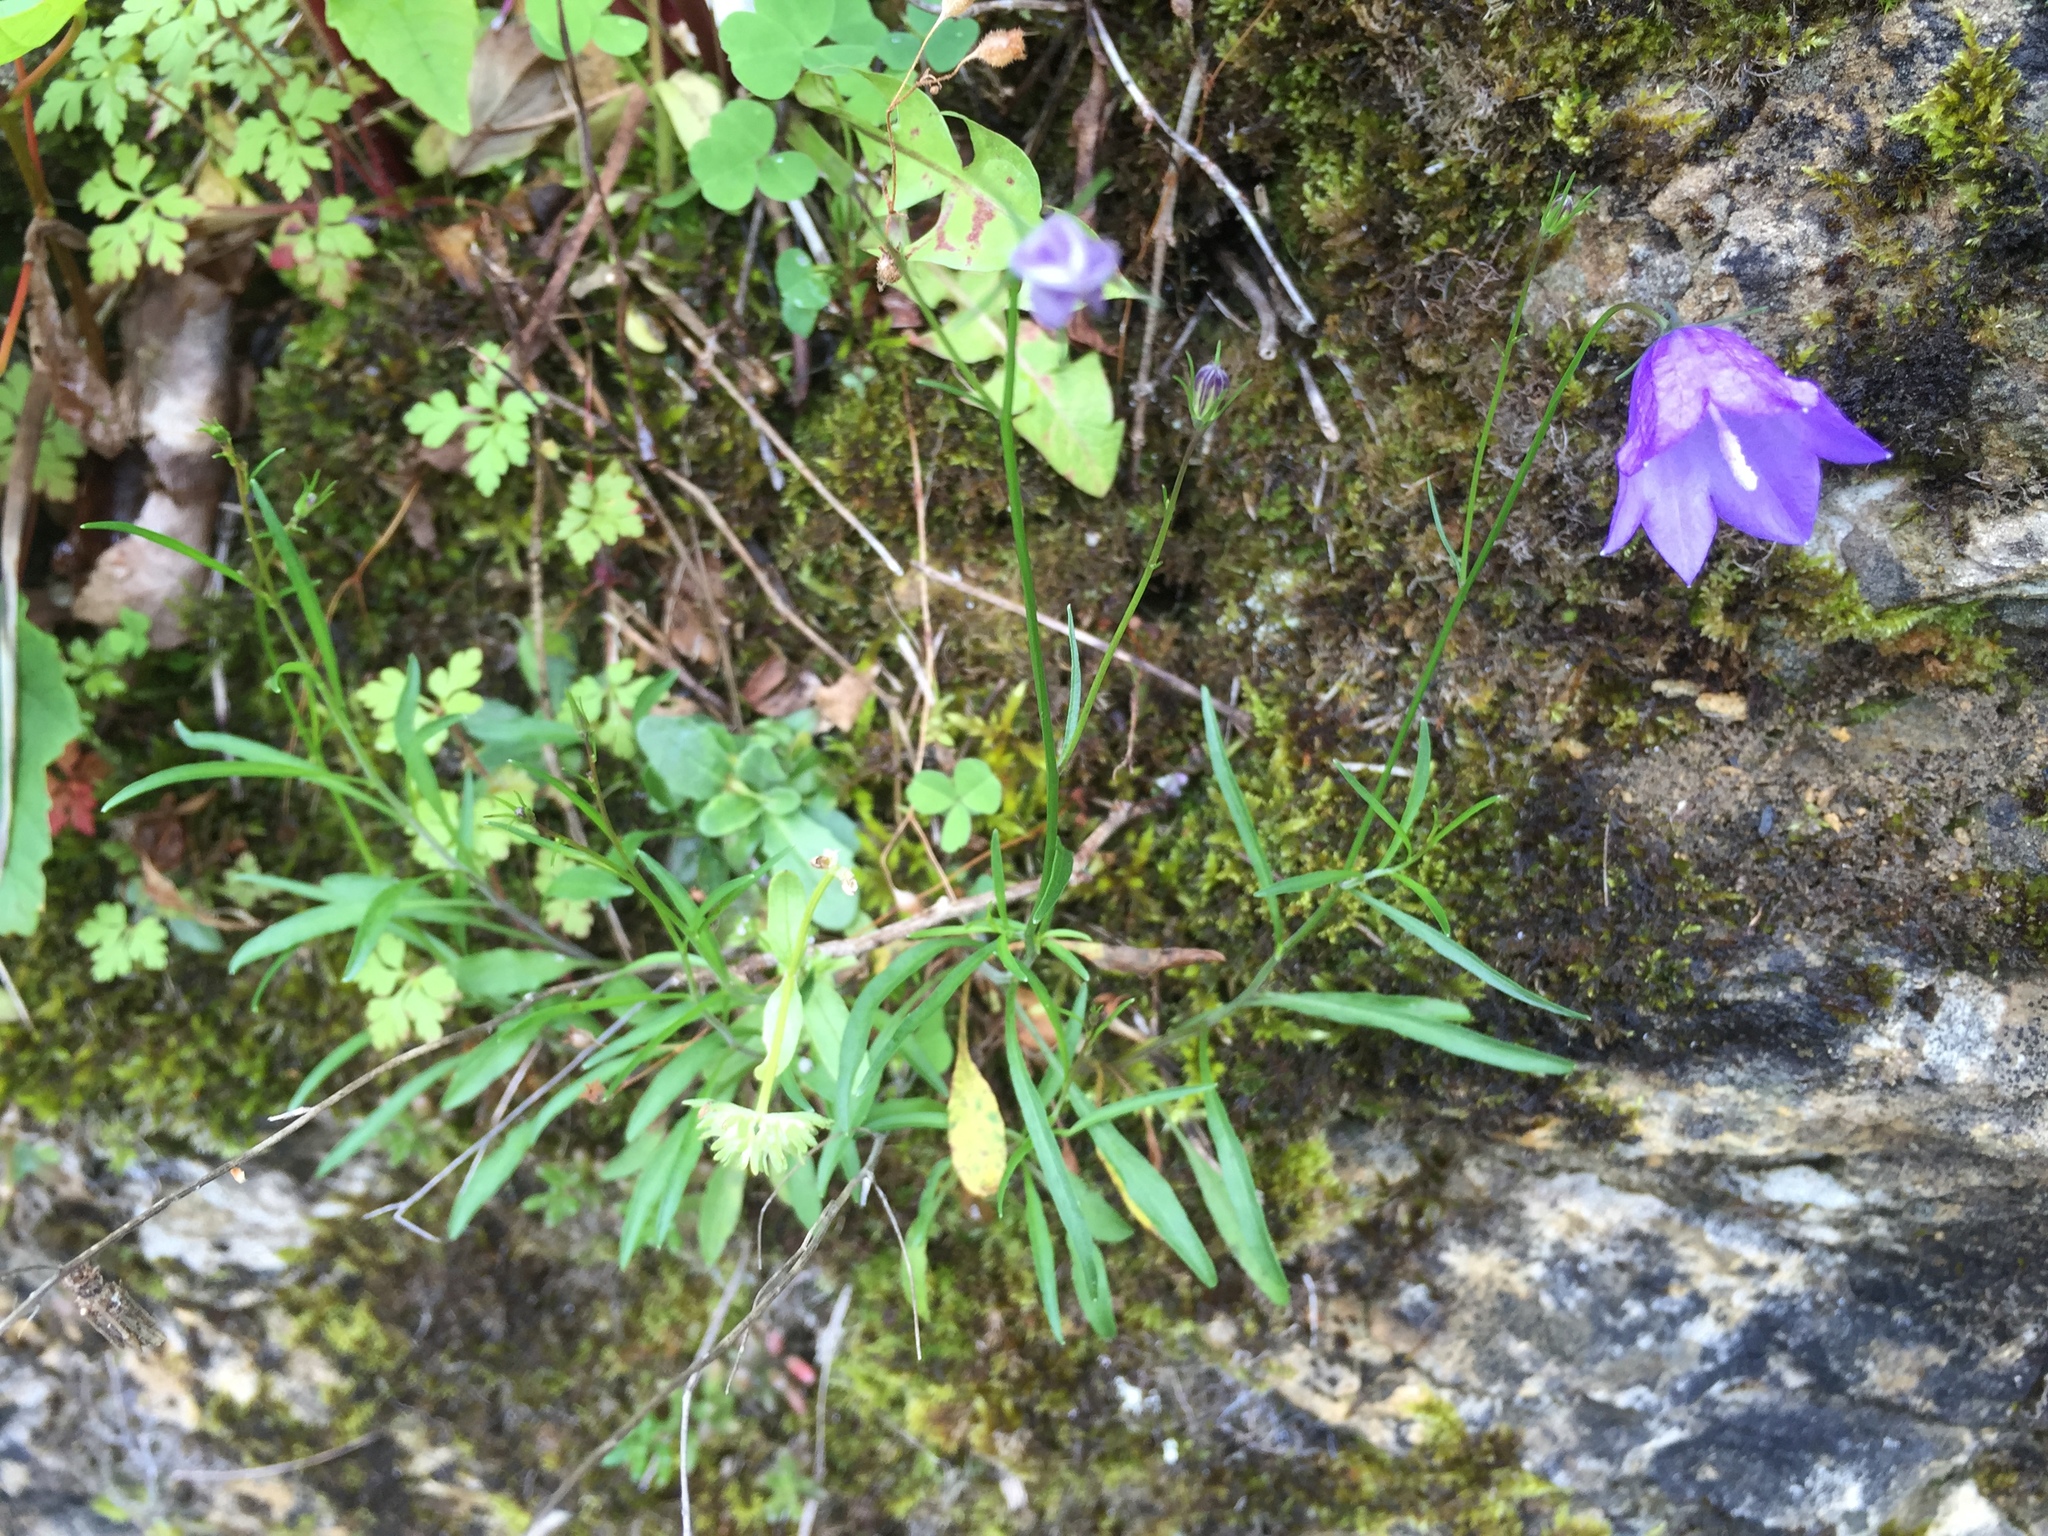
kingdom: Plantae
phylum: Tracheophyta
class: Magnoliopsida
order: Asterales
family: Campanulaceae
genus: Campanula
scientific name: Campanula rotundifolia
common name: Harebell
